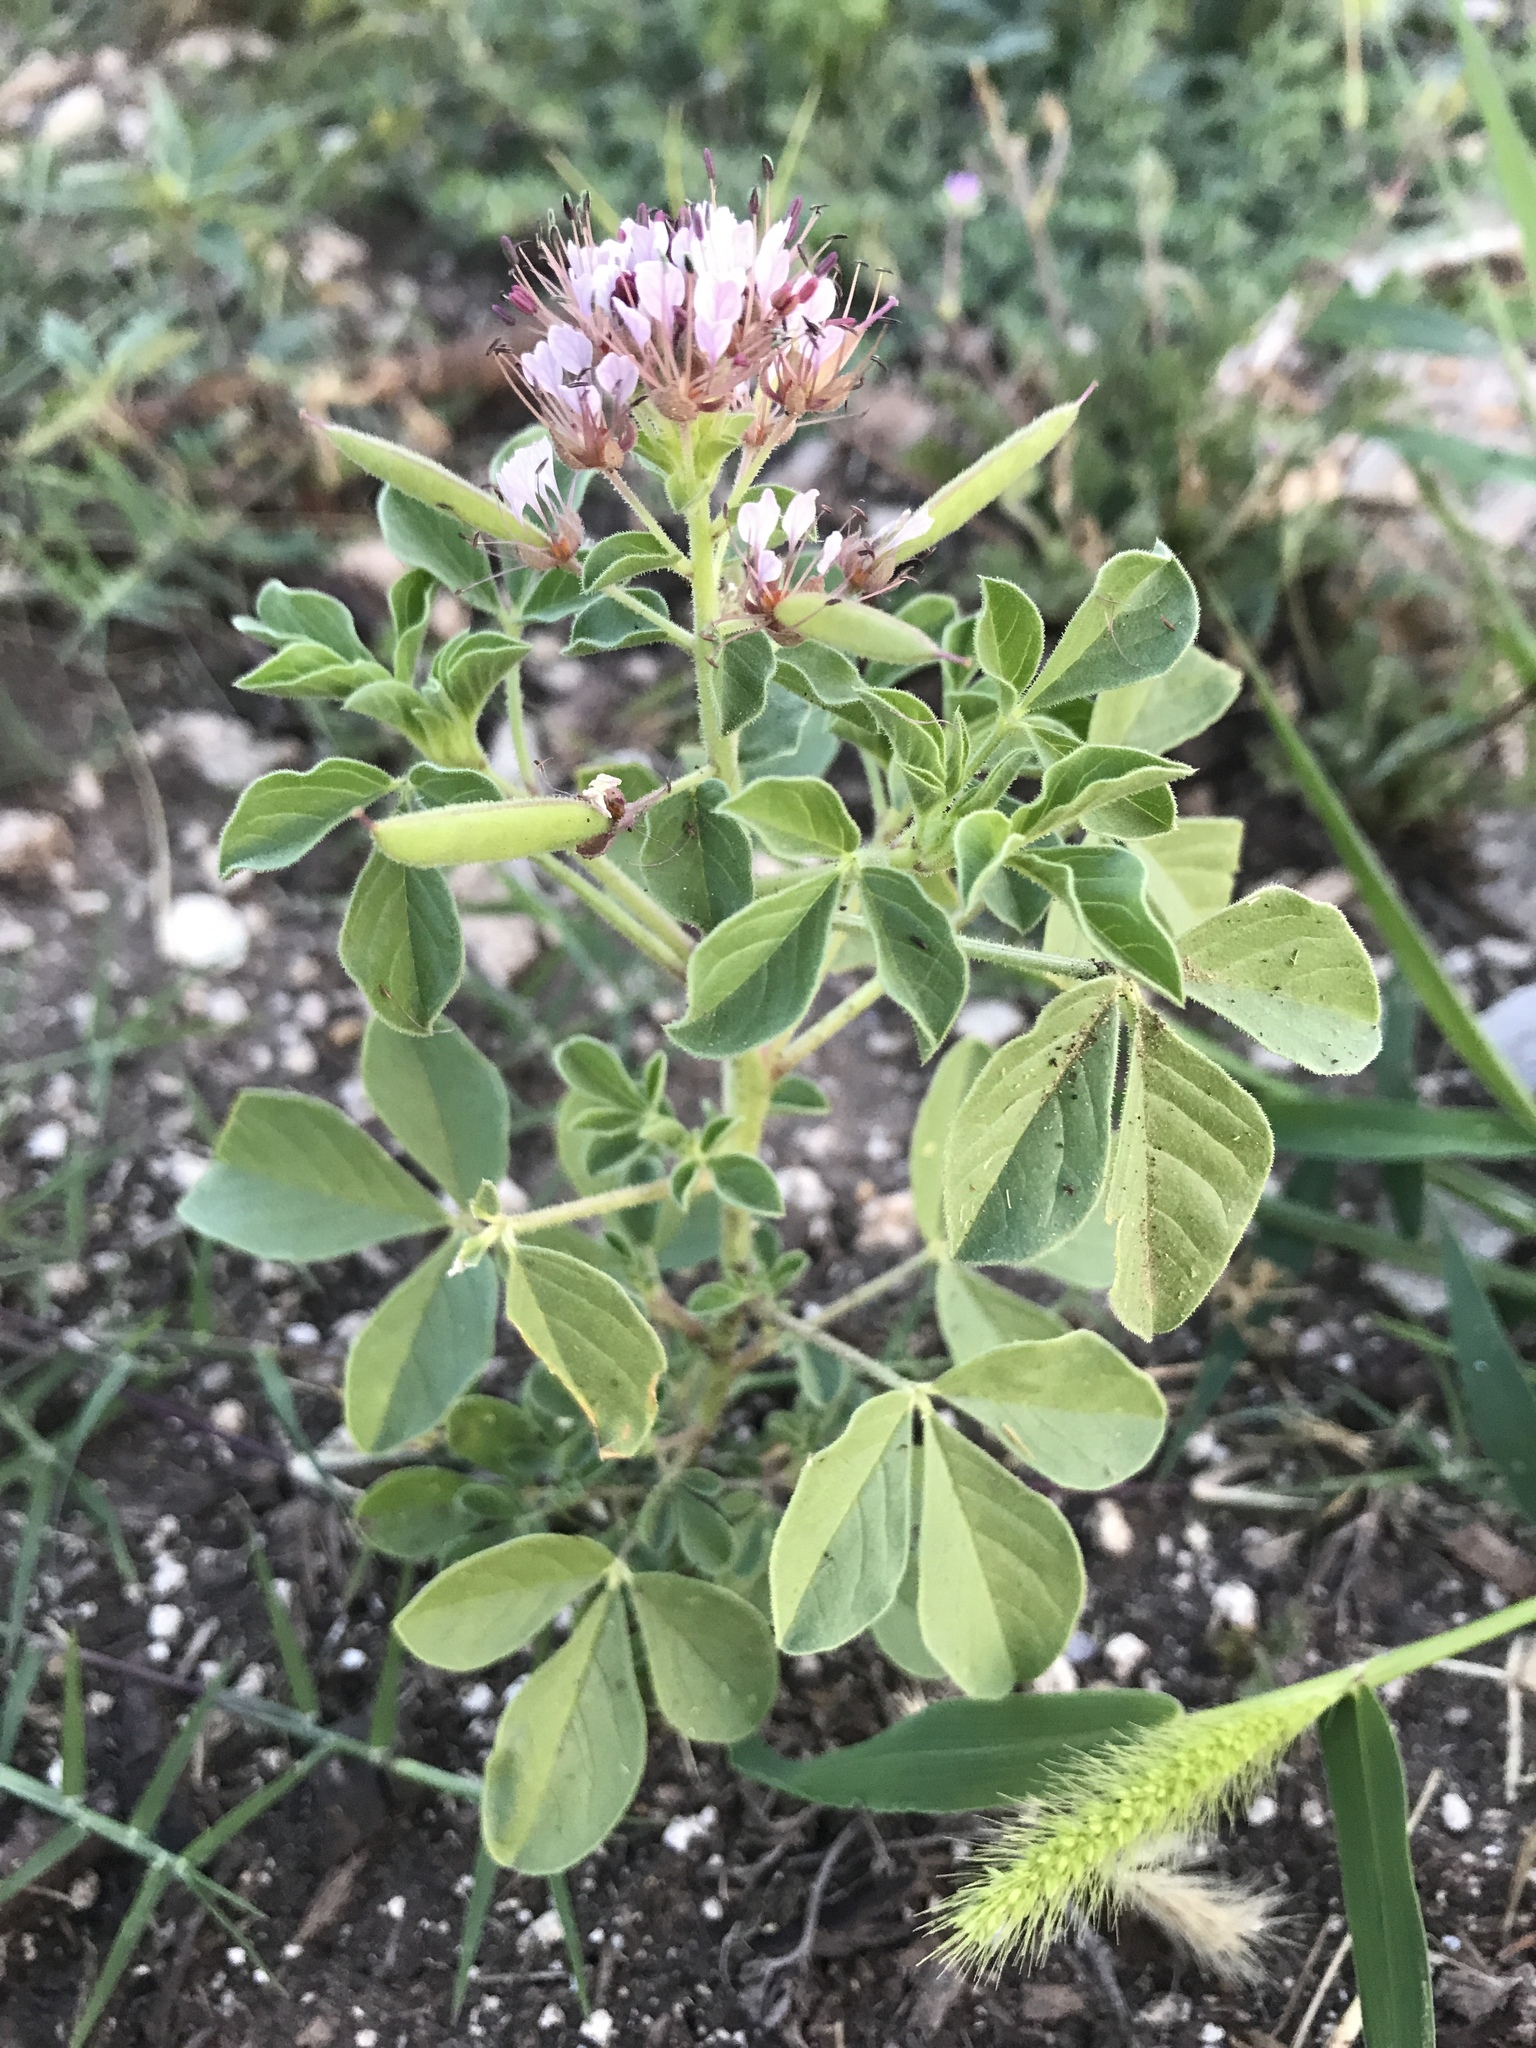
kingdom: Plantae
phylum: Tracheophyta
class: Magnoliopsida
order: Brassicales
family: Cleomaceae
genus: Polanisia
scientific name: Polanisia dodecandra
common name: Clammyweed
